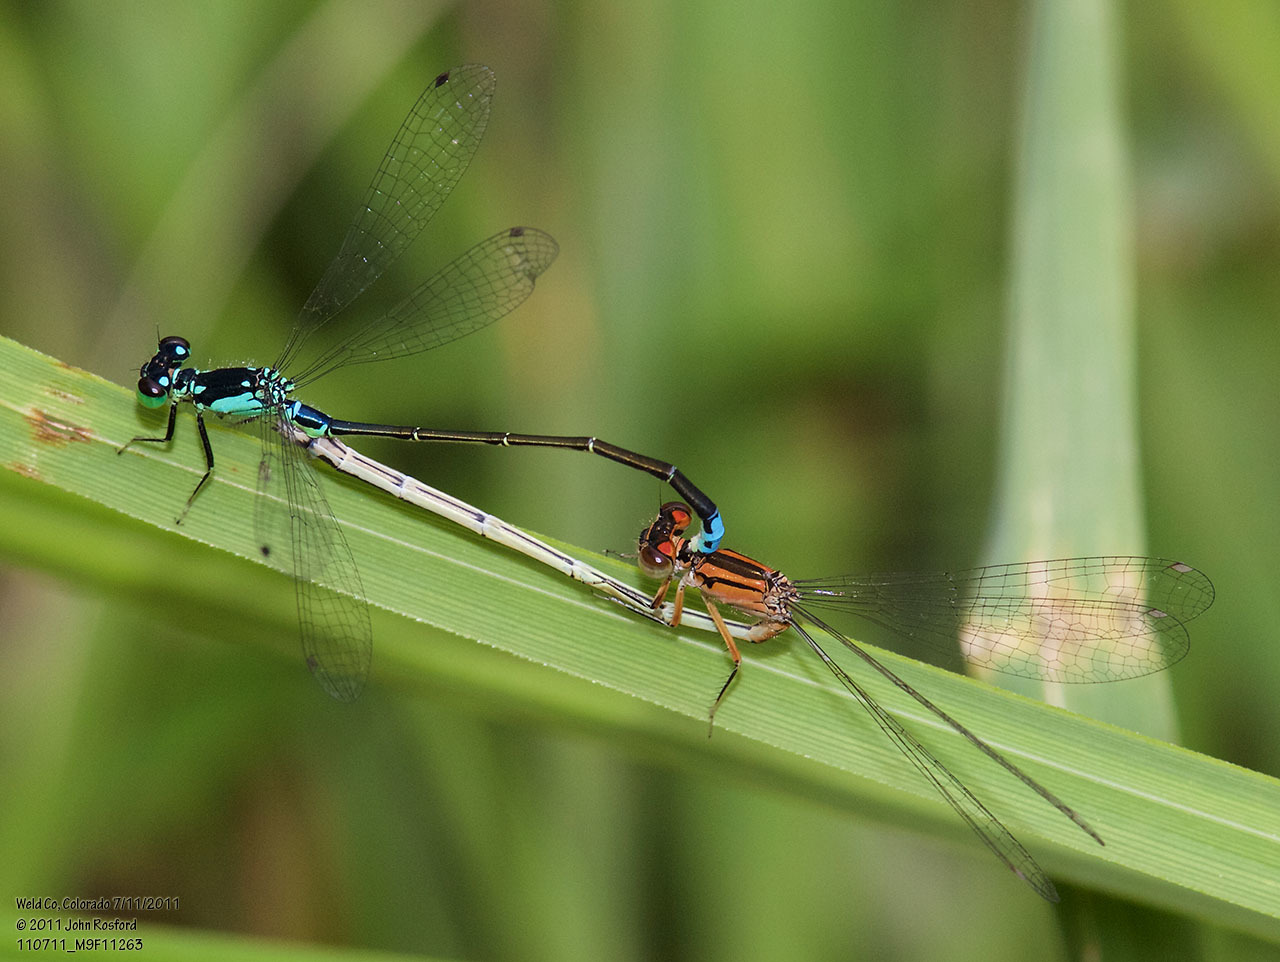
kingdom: Animalia
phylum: Arthropoda
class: Insecta
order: Odonata
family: Coenagrionidae
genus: Ischnura
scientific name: Ischnura damula
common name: Plains forktail
